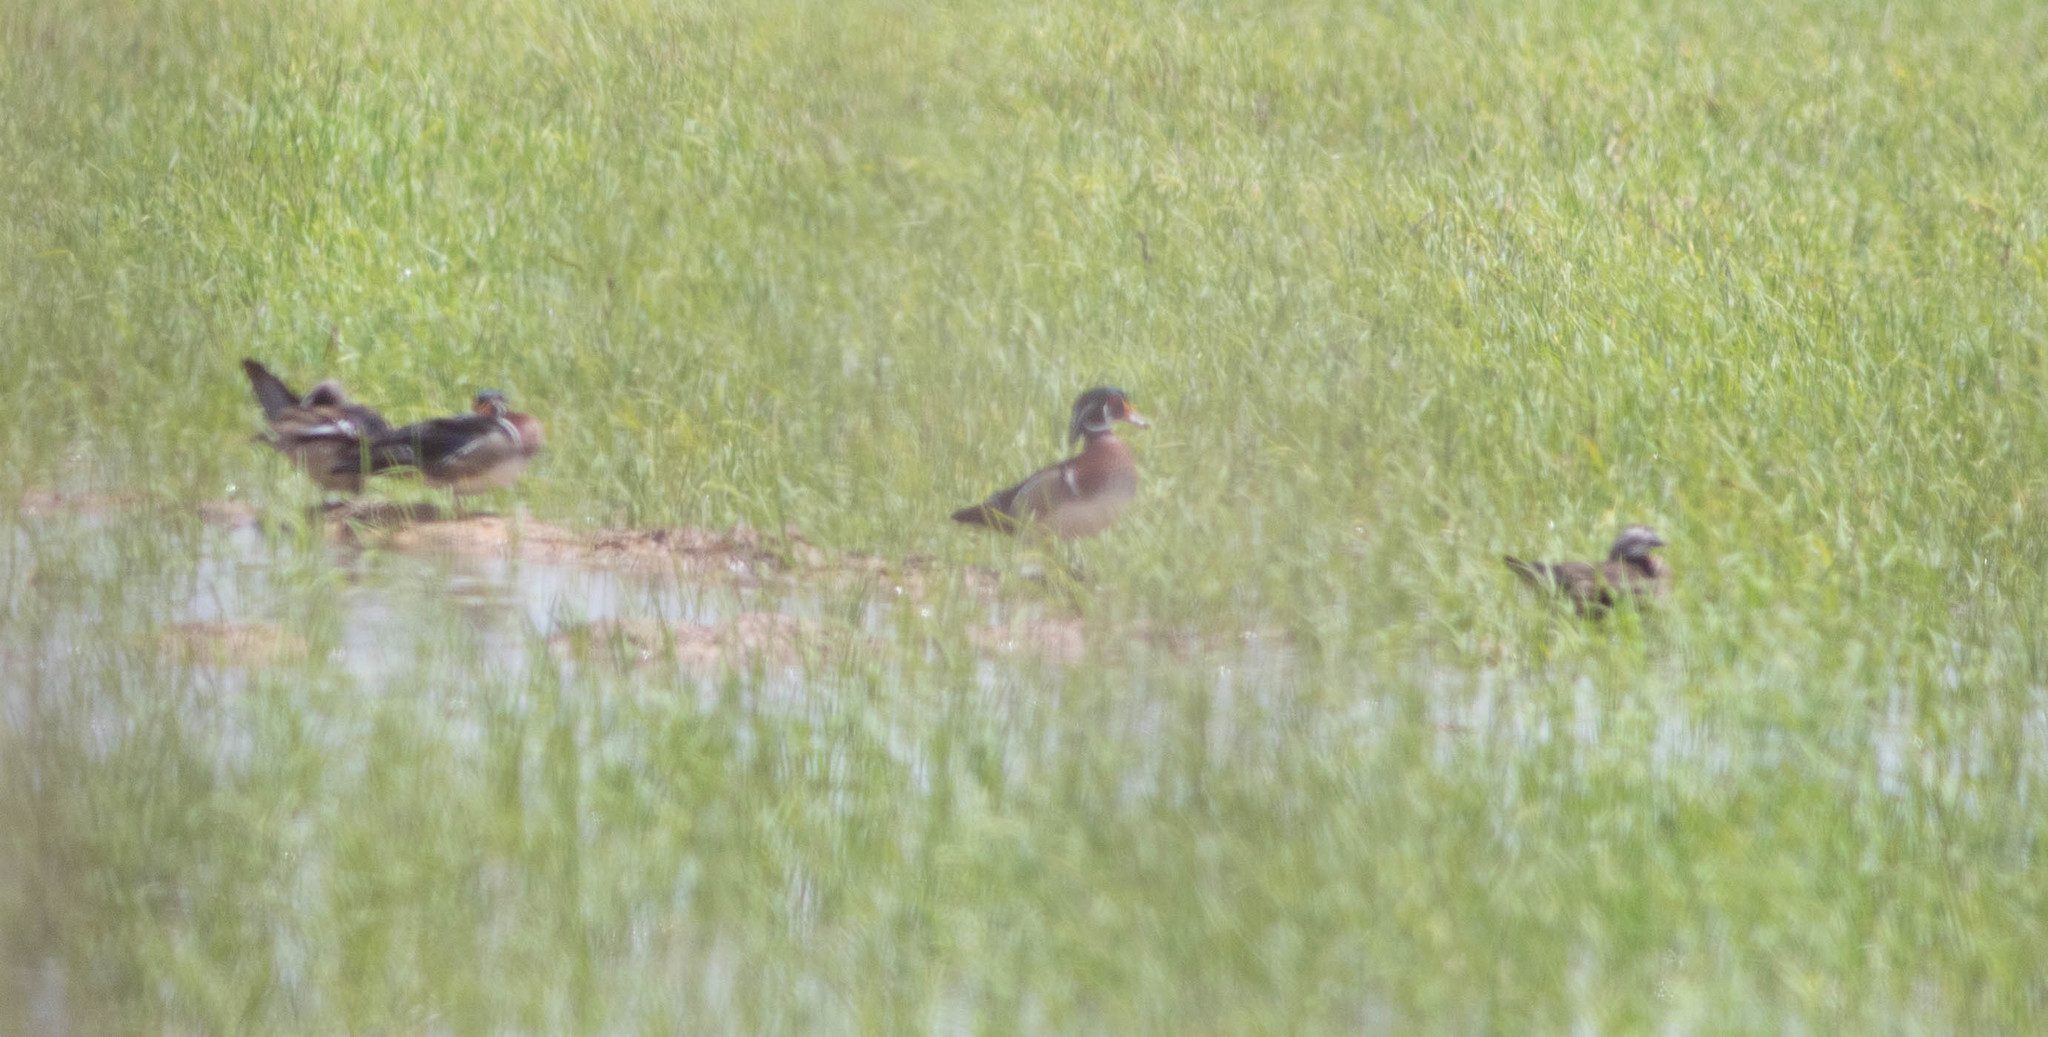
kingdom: Animalia
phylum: Chordata
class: Aves
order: Anseriformes
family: Anatidae
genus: Aix
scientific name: Aix sponsa
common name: Wood duck
